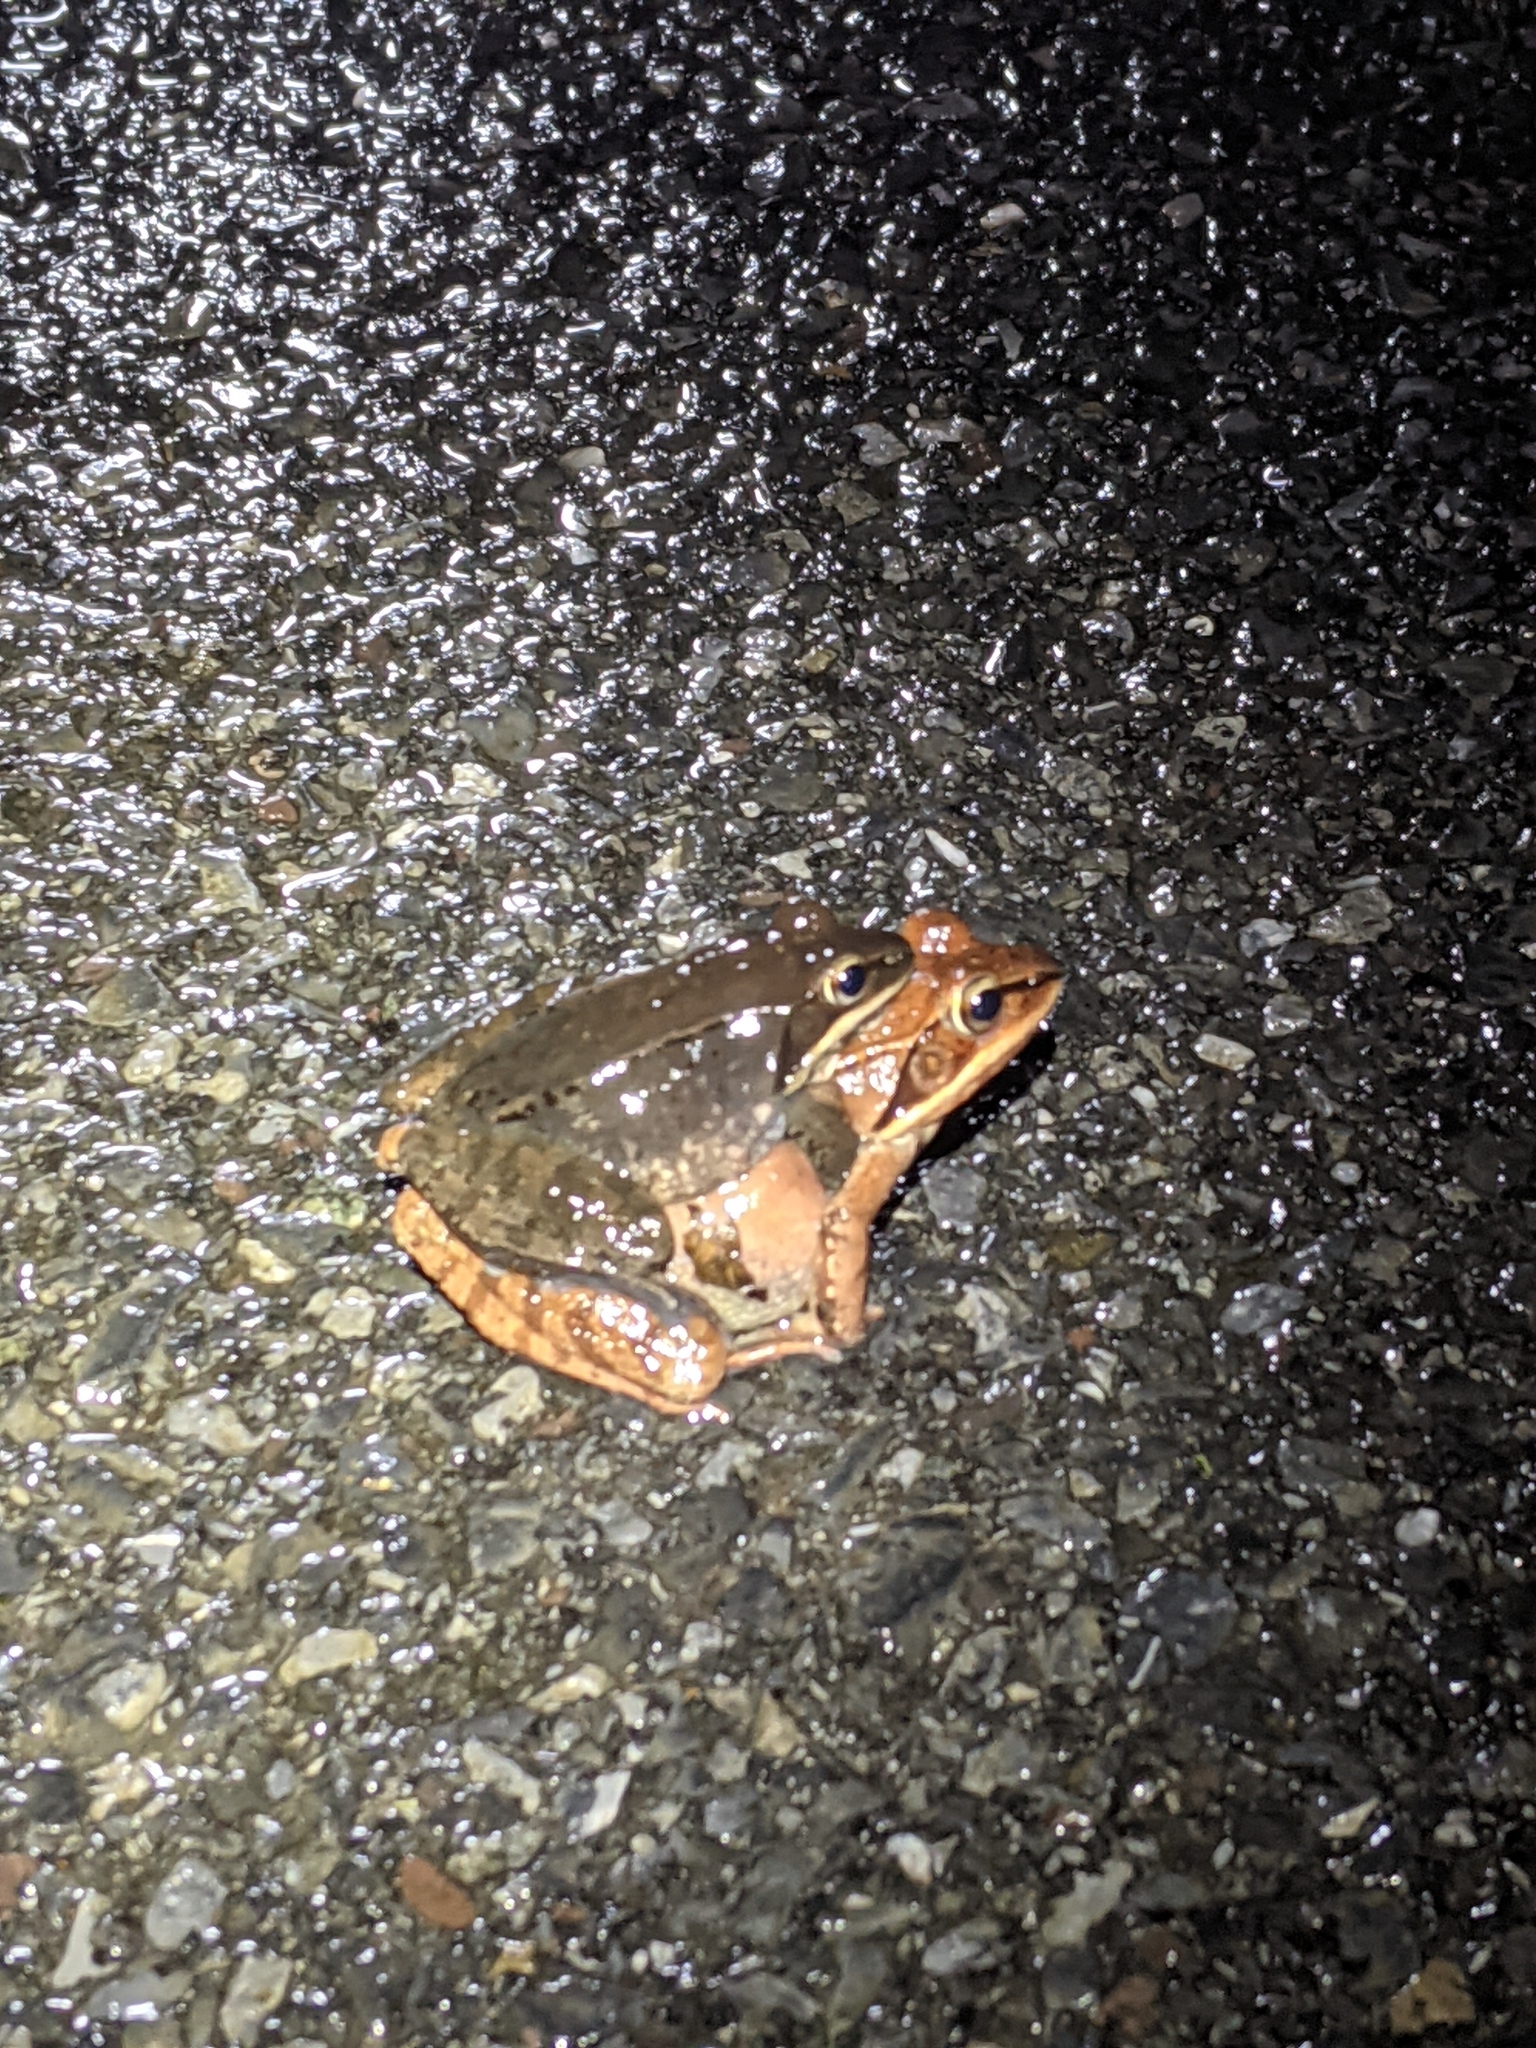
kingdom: Animalia
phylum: Chordata
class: Amphibia
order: Anura
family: Ranidae
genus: Lithobates
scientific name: Lithobates sylvaticus
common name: Wood frog
